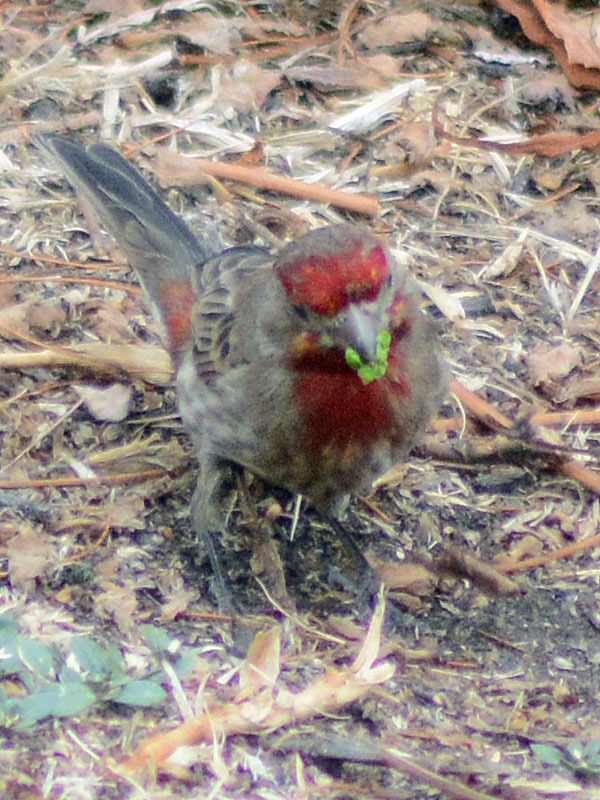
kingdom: Animalia
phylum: Chordata
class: Aves
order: Passeriformes
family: Fringillidae
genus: Haemorhous
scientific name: Haemorhous mexicanus
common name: House finch
